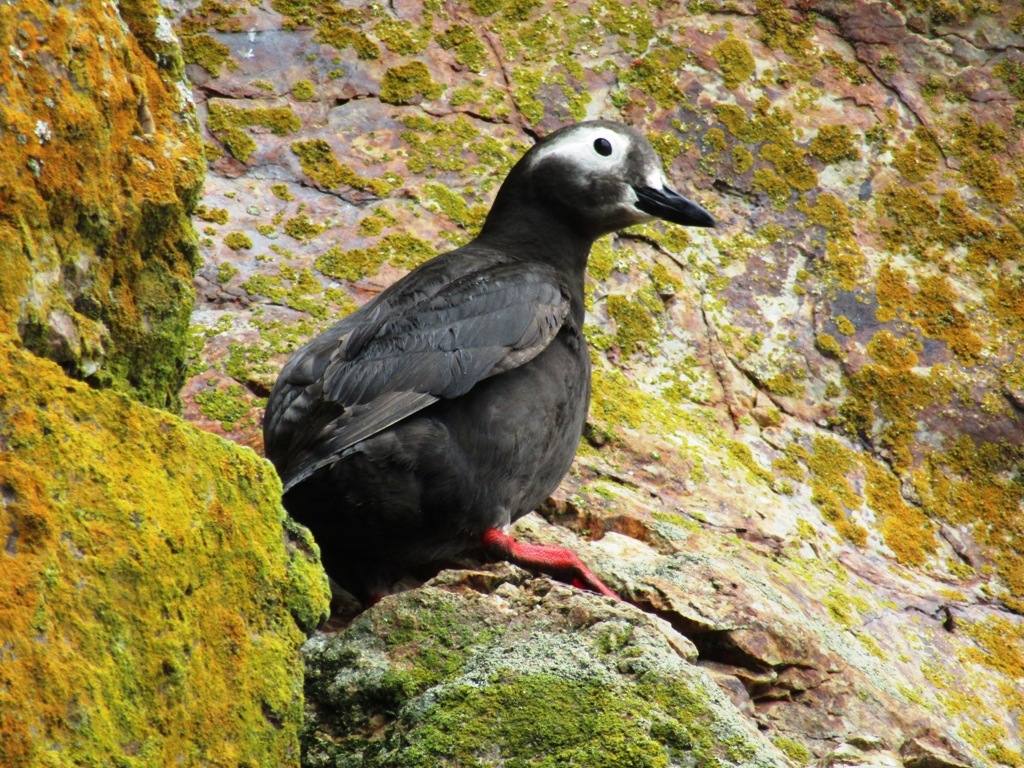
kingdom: Animalia
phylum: Chordata
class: Aves
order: Charadriiformes
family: Alcidae
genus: Cepphus
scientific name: Cepphus carbo
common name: Spectacled guillemot
